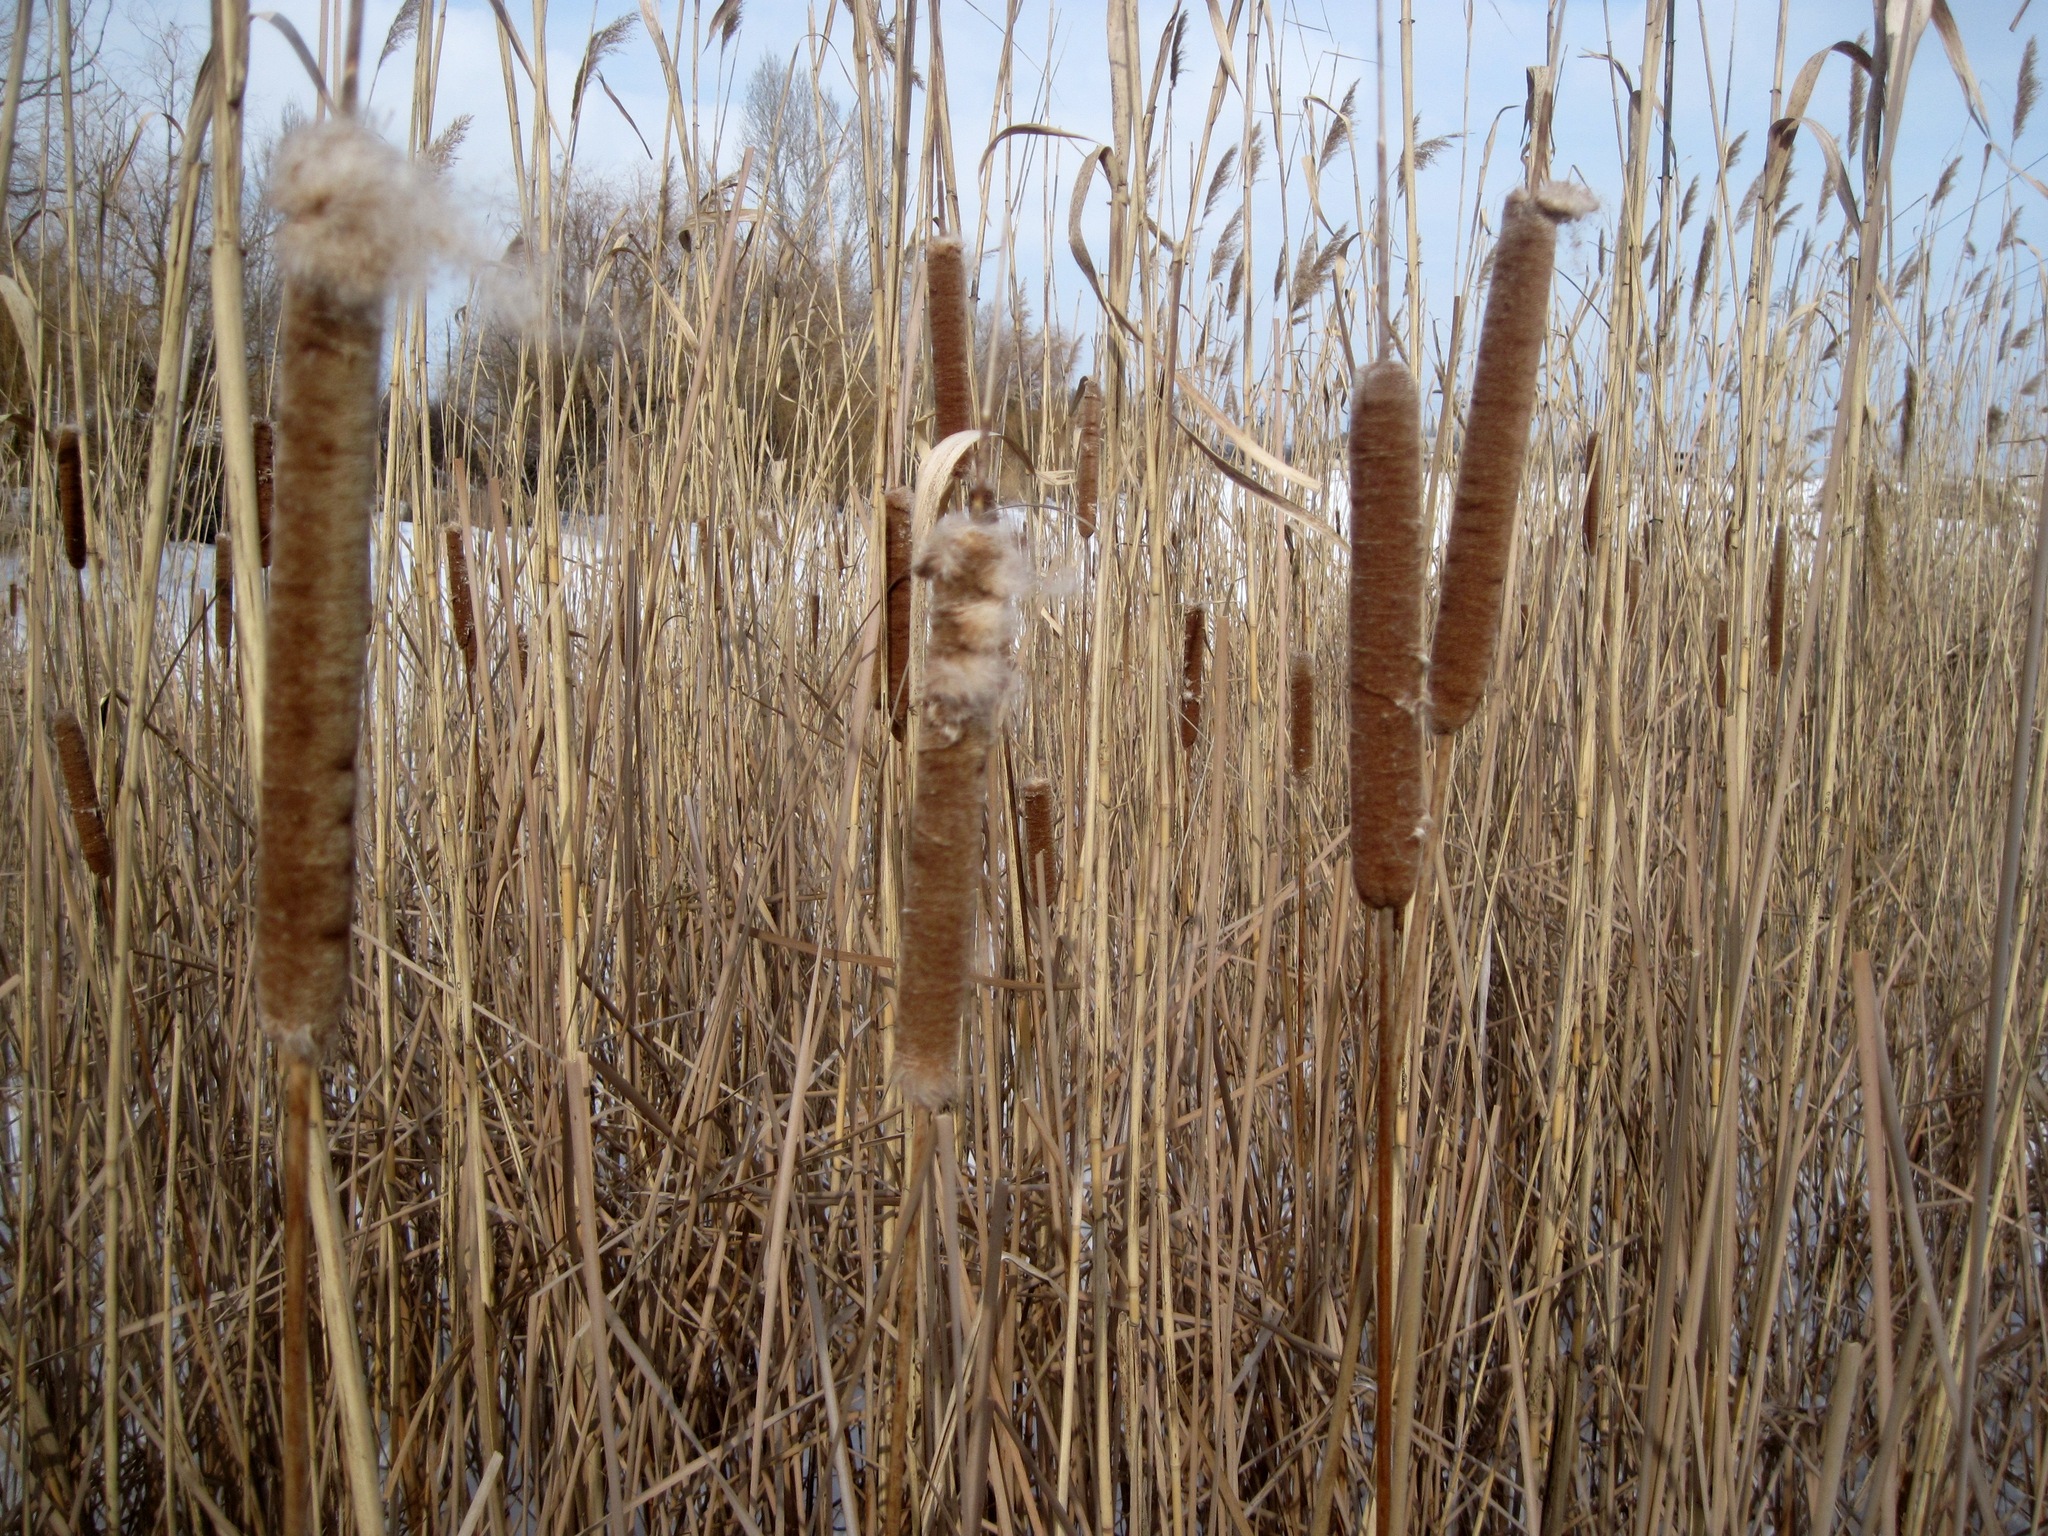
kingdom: Plantae
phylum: Tracheophyta
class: Liliopsida
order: Poales
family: Typhaceae
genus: Typha
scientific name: Typha angustifolia
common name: Lesser bulrush
